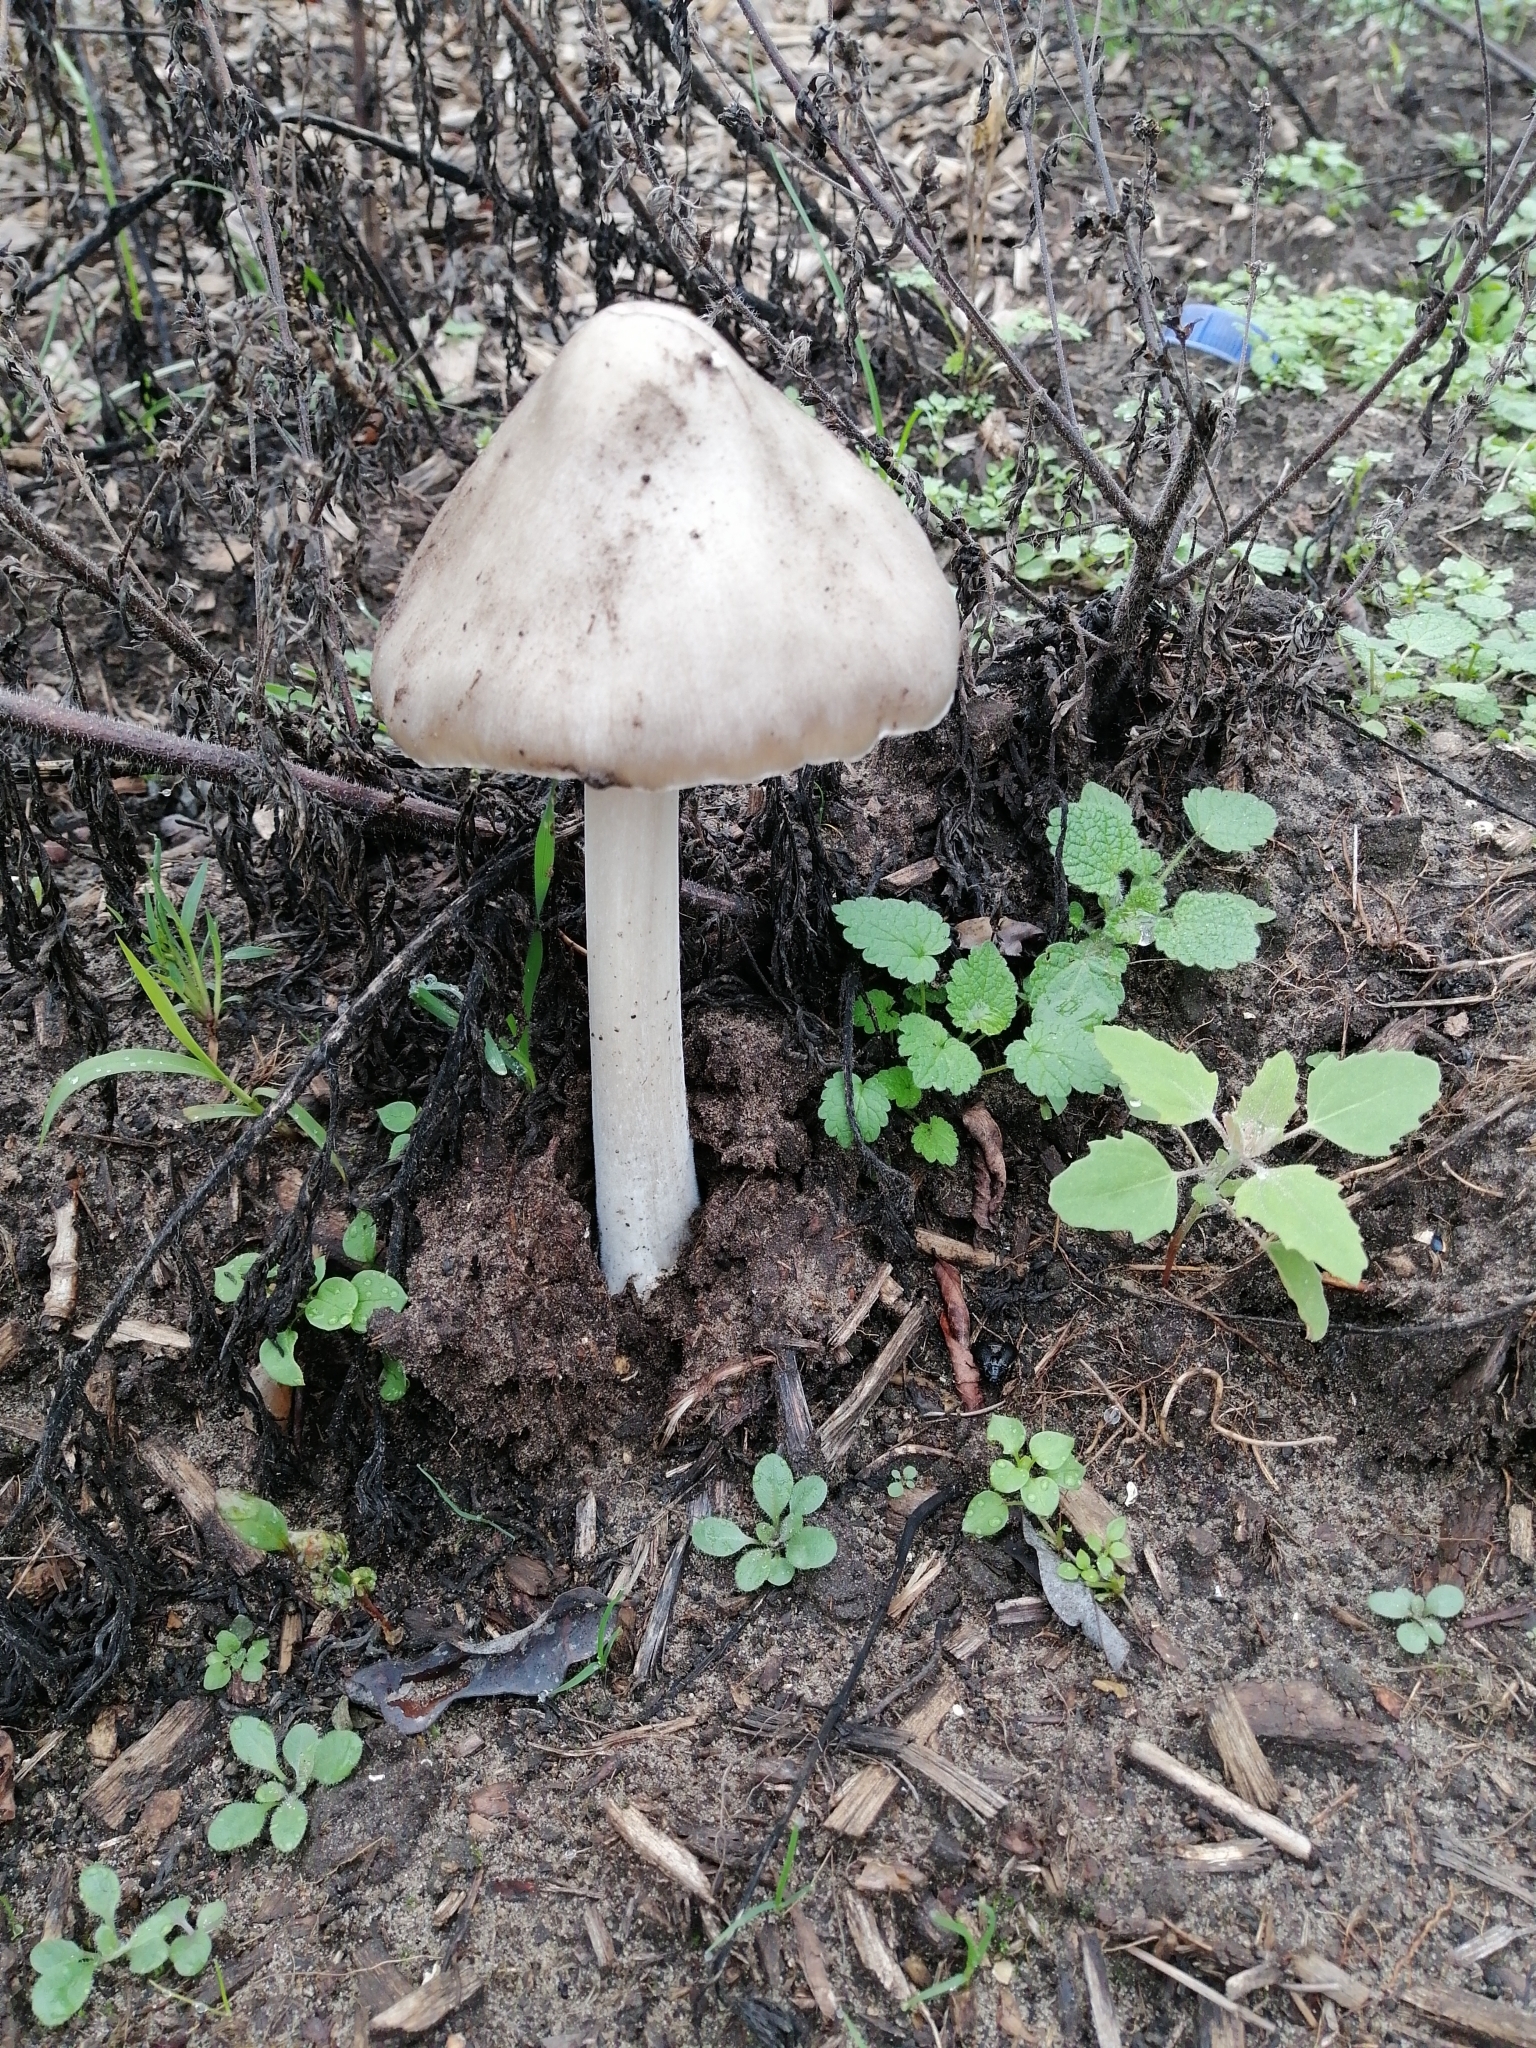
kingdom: Fungi
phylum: Basidiomycota
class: Agaricomycetes
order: Agaricales
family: Pluteaceae
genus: Volvopluteus
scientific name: Volvopluteus gloiocephalus
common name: Stubble rosegill
